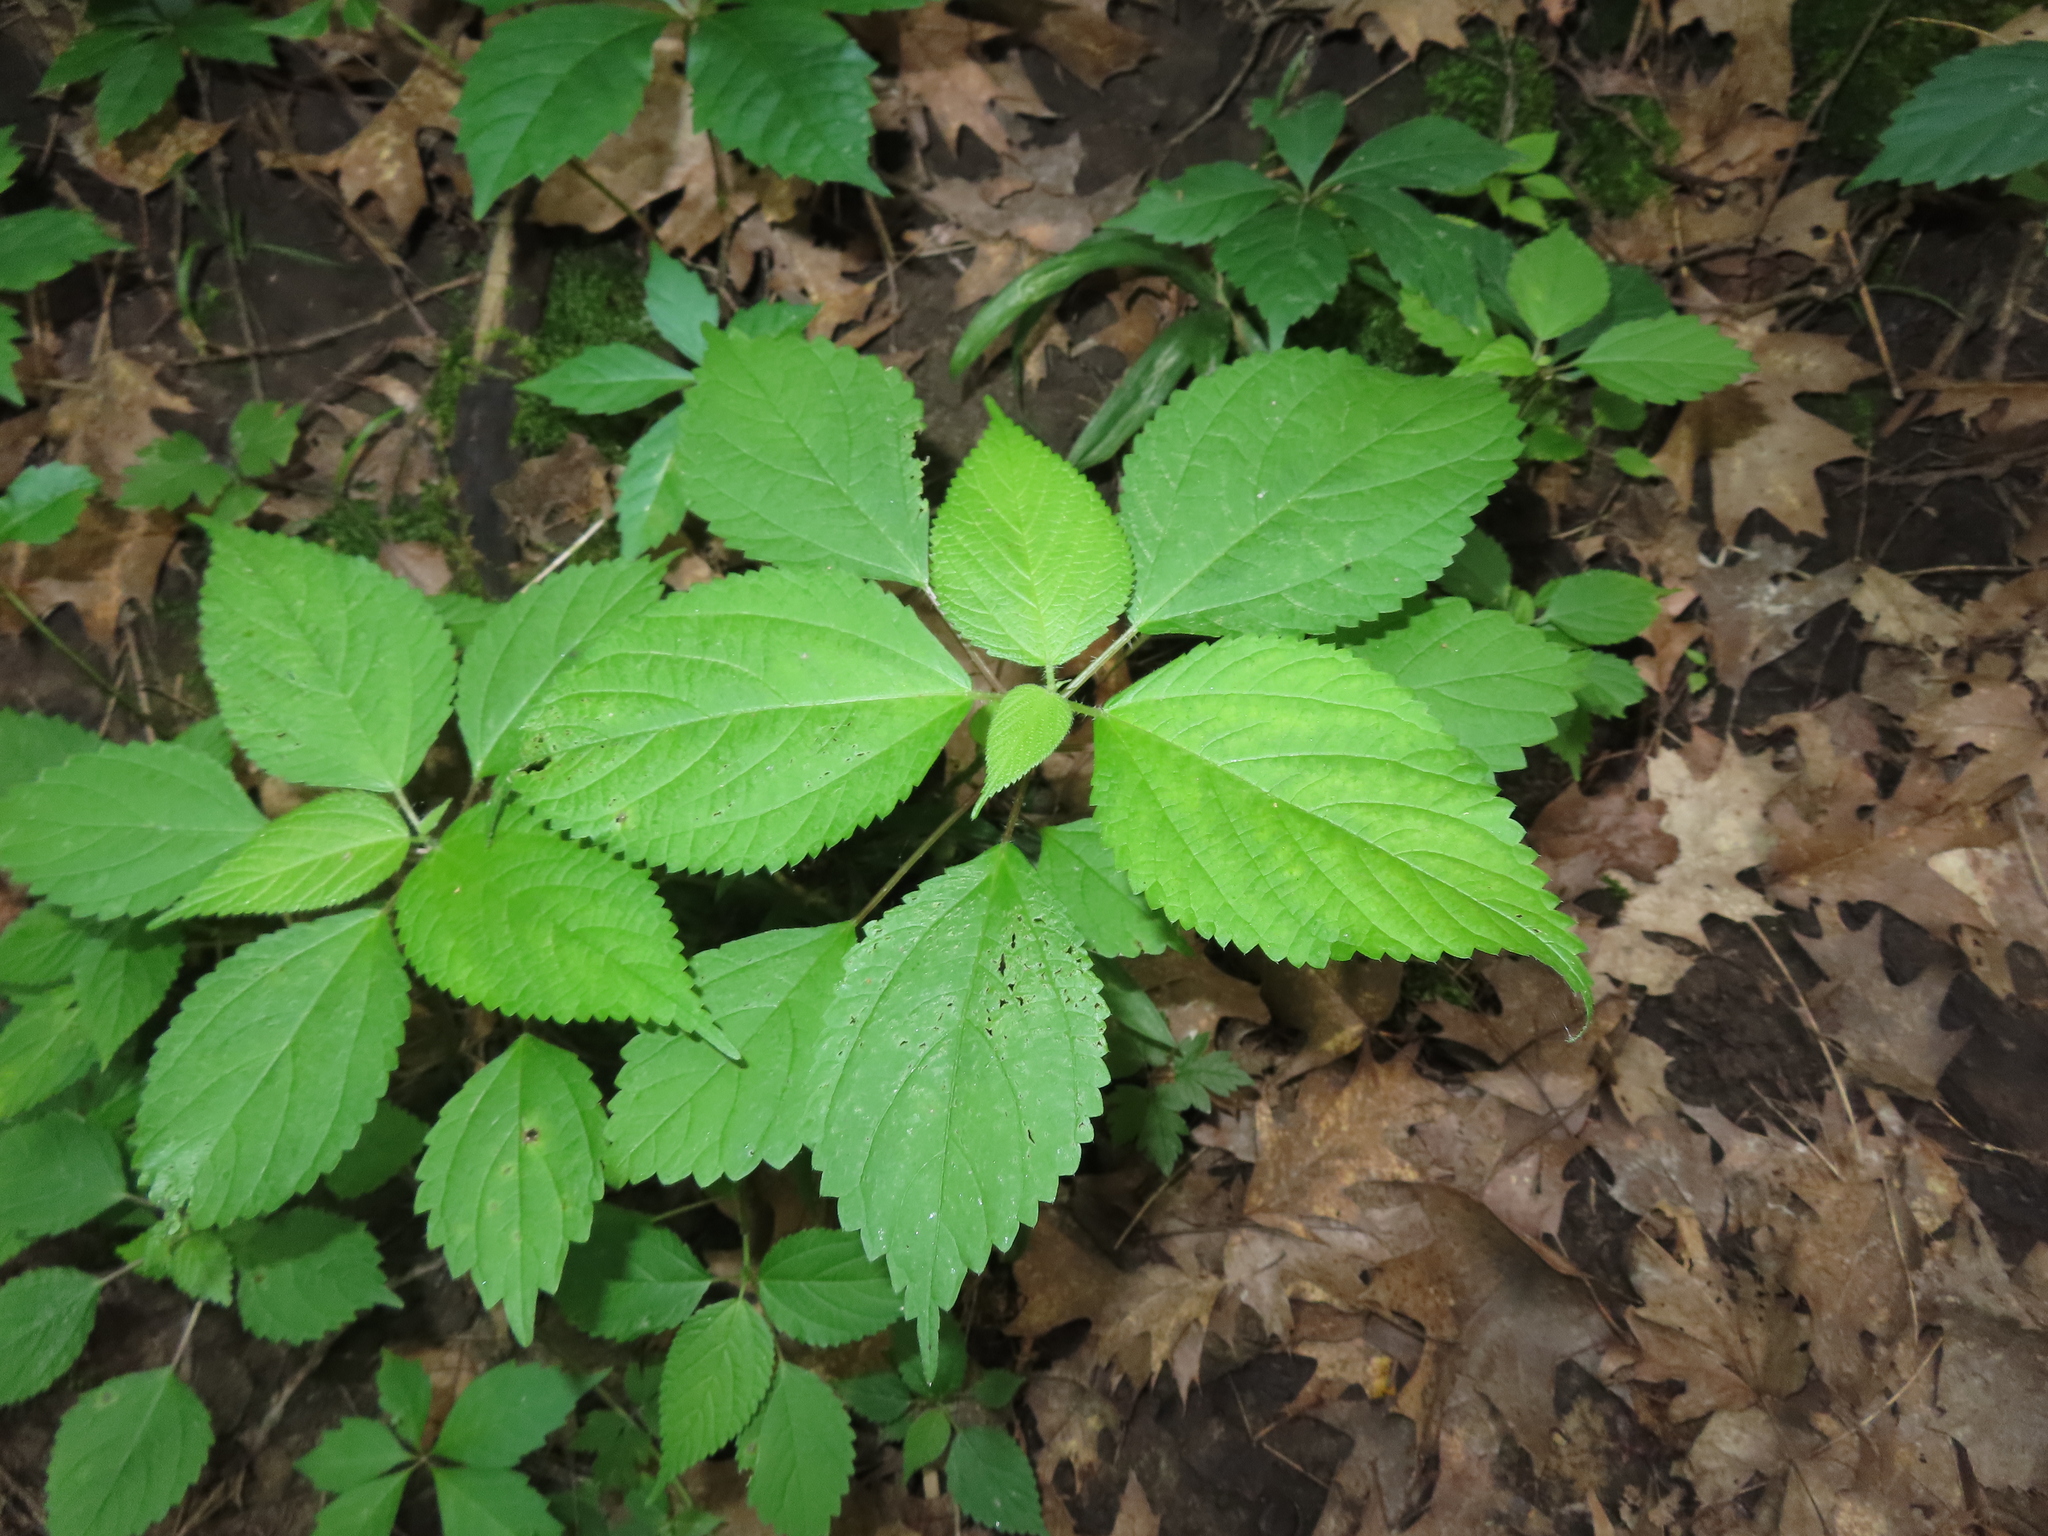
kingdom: Plantae
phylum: Tracheophyta
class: Magnoliopsida
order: Rosales
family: Urticaceae
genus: Laportea
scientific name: Laportea canadensis
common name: Canada nettle
